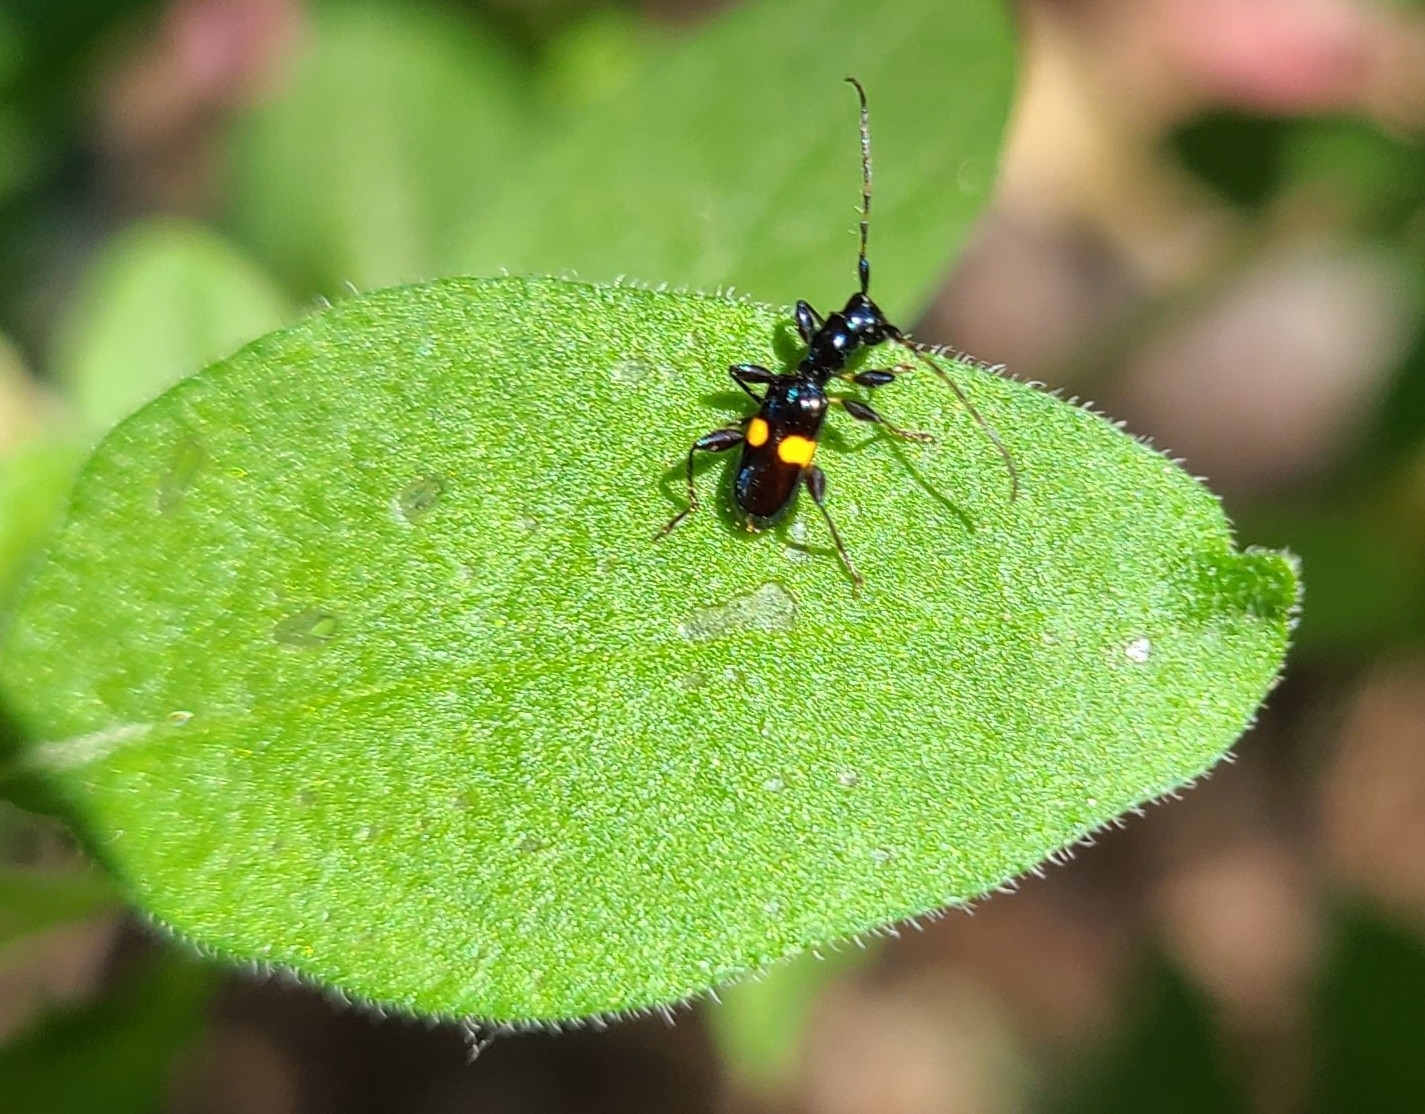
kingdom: Animalia
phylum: Arthropoda
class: Insecta
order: Coleoptera
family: Cerambycidae
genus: Zorion
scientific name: Zorion guttigerum
